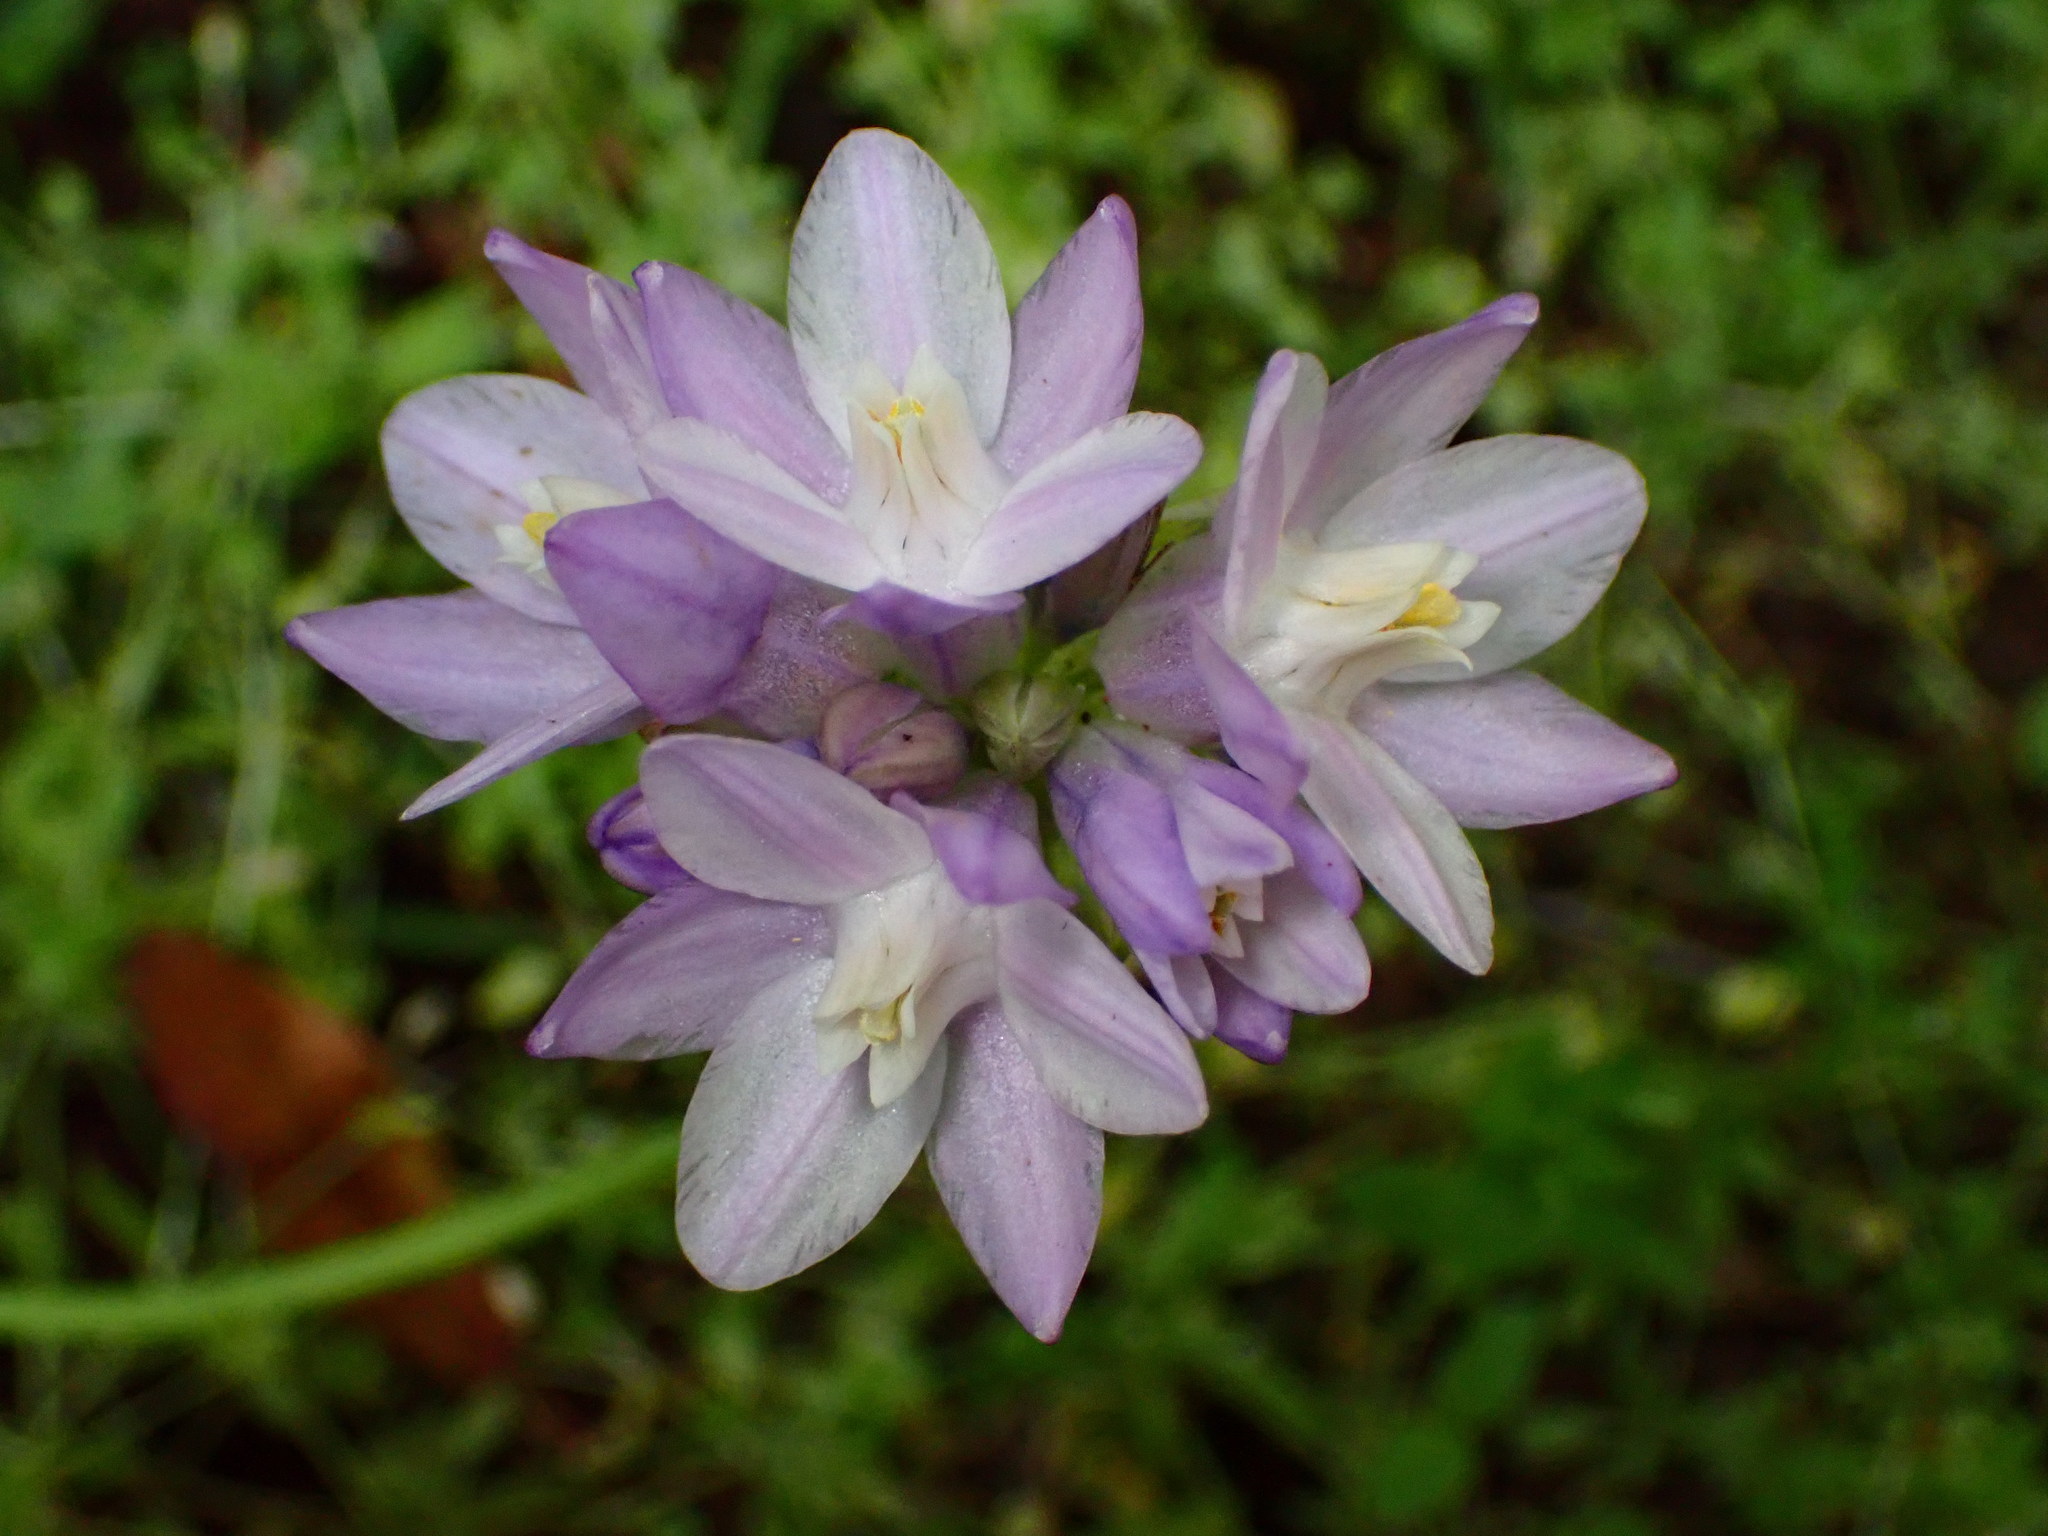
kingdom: Plantae
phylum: Tracheophyta
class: Liliopsida
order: Asparagales
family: Asparagaceae
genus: Dipterostemon
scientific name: Dipterostemon capitatus
